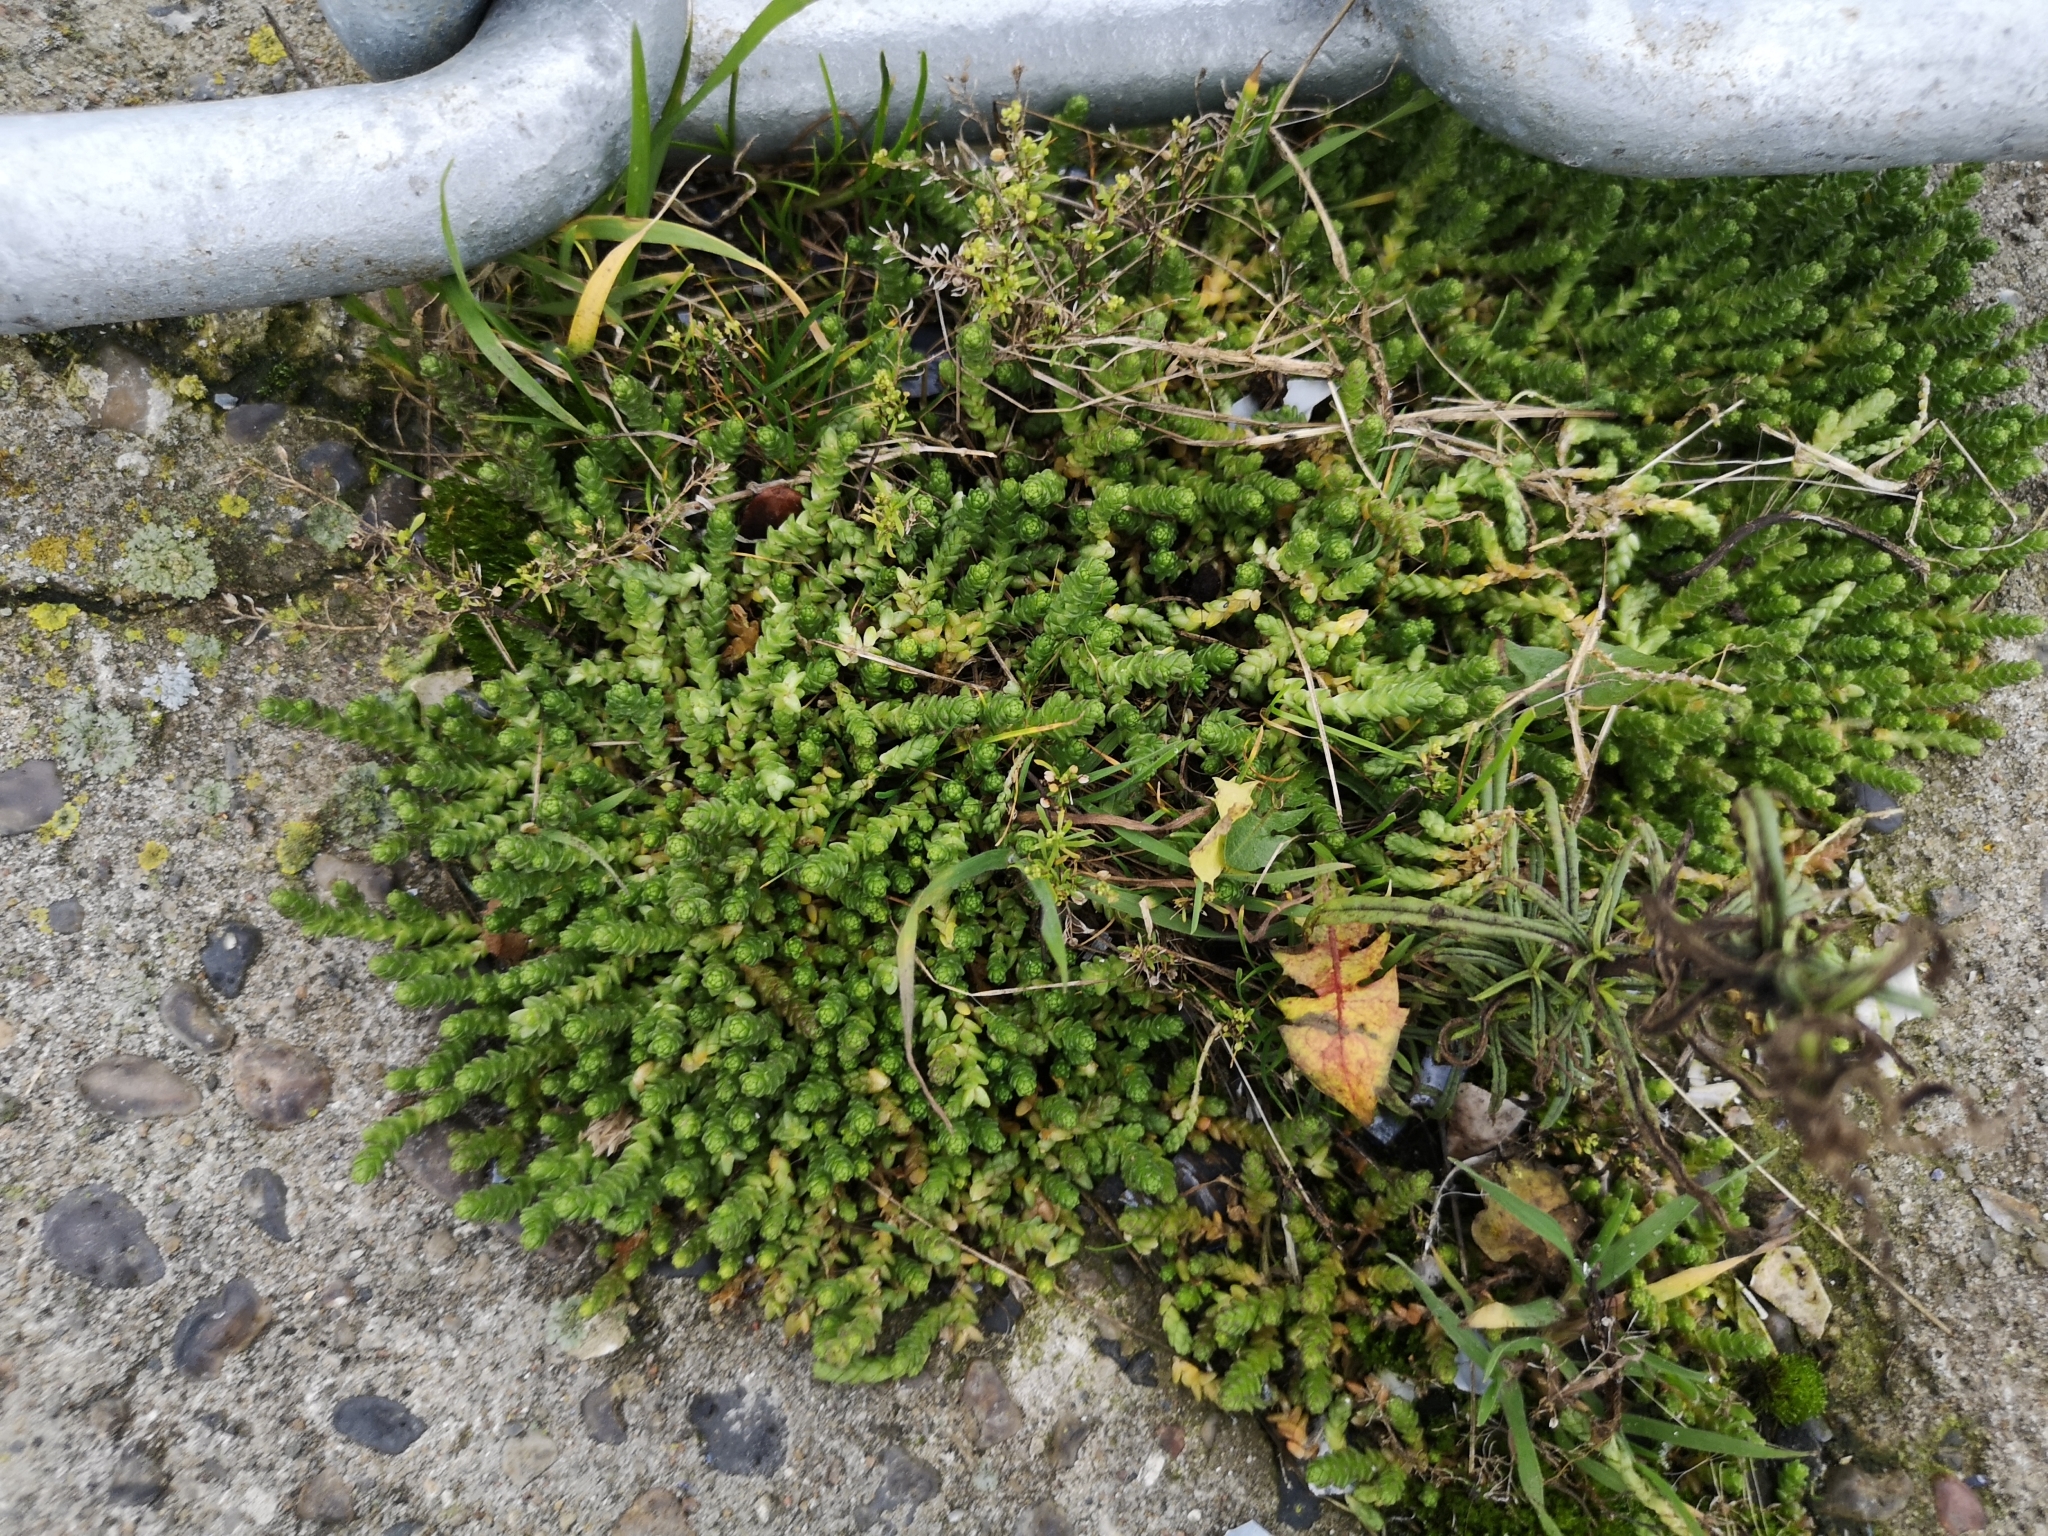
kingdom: Plantae
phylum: Tracheophyta
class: Magnoliopsida
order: Saxifragales
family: Crassulaceae
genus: Sedum
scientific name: Sedum acre
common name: Biting stonecrop
